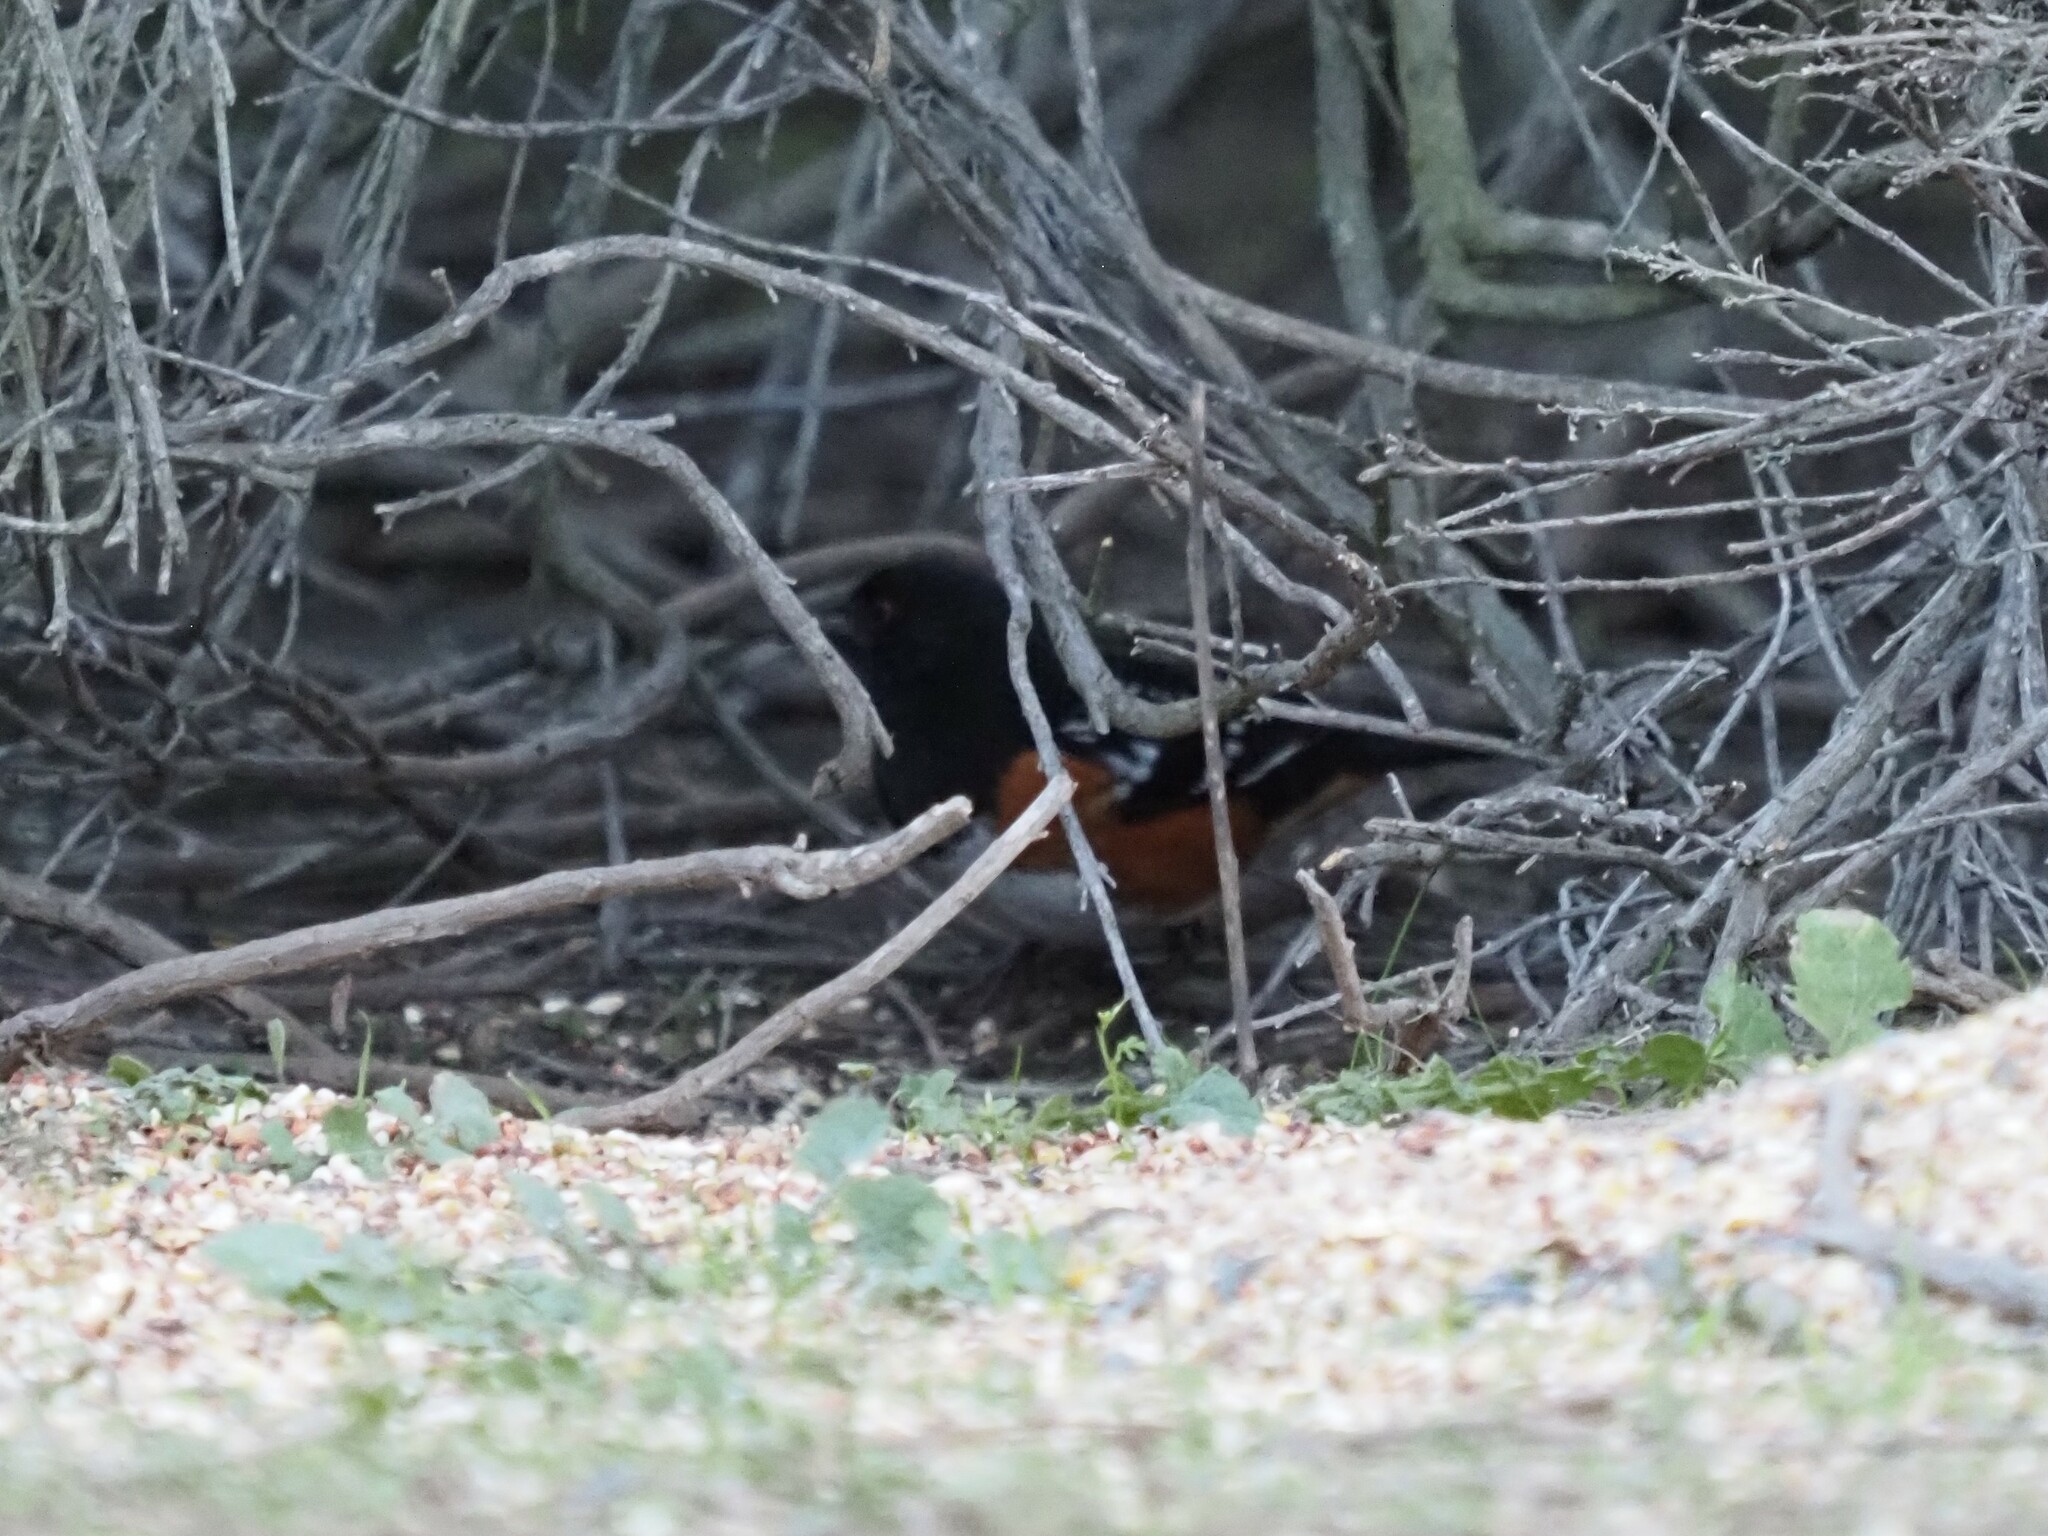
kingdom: Animalia
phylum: Chordata
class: Aves
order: Passeriformes
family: Passerellidae
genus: Pipilo
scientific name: Pipilo maculatus
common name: Spotted towhee
